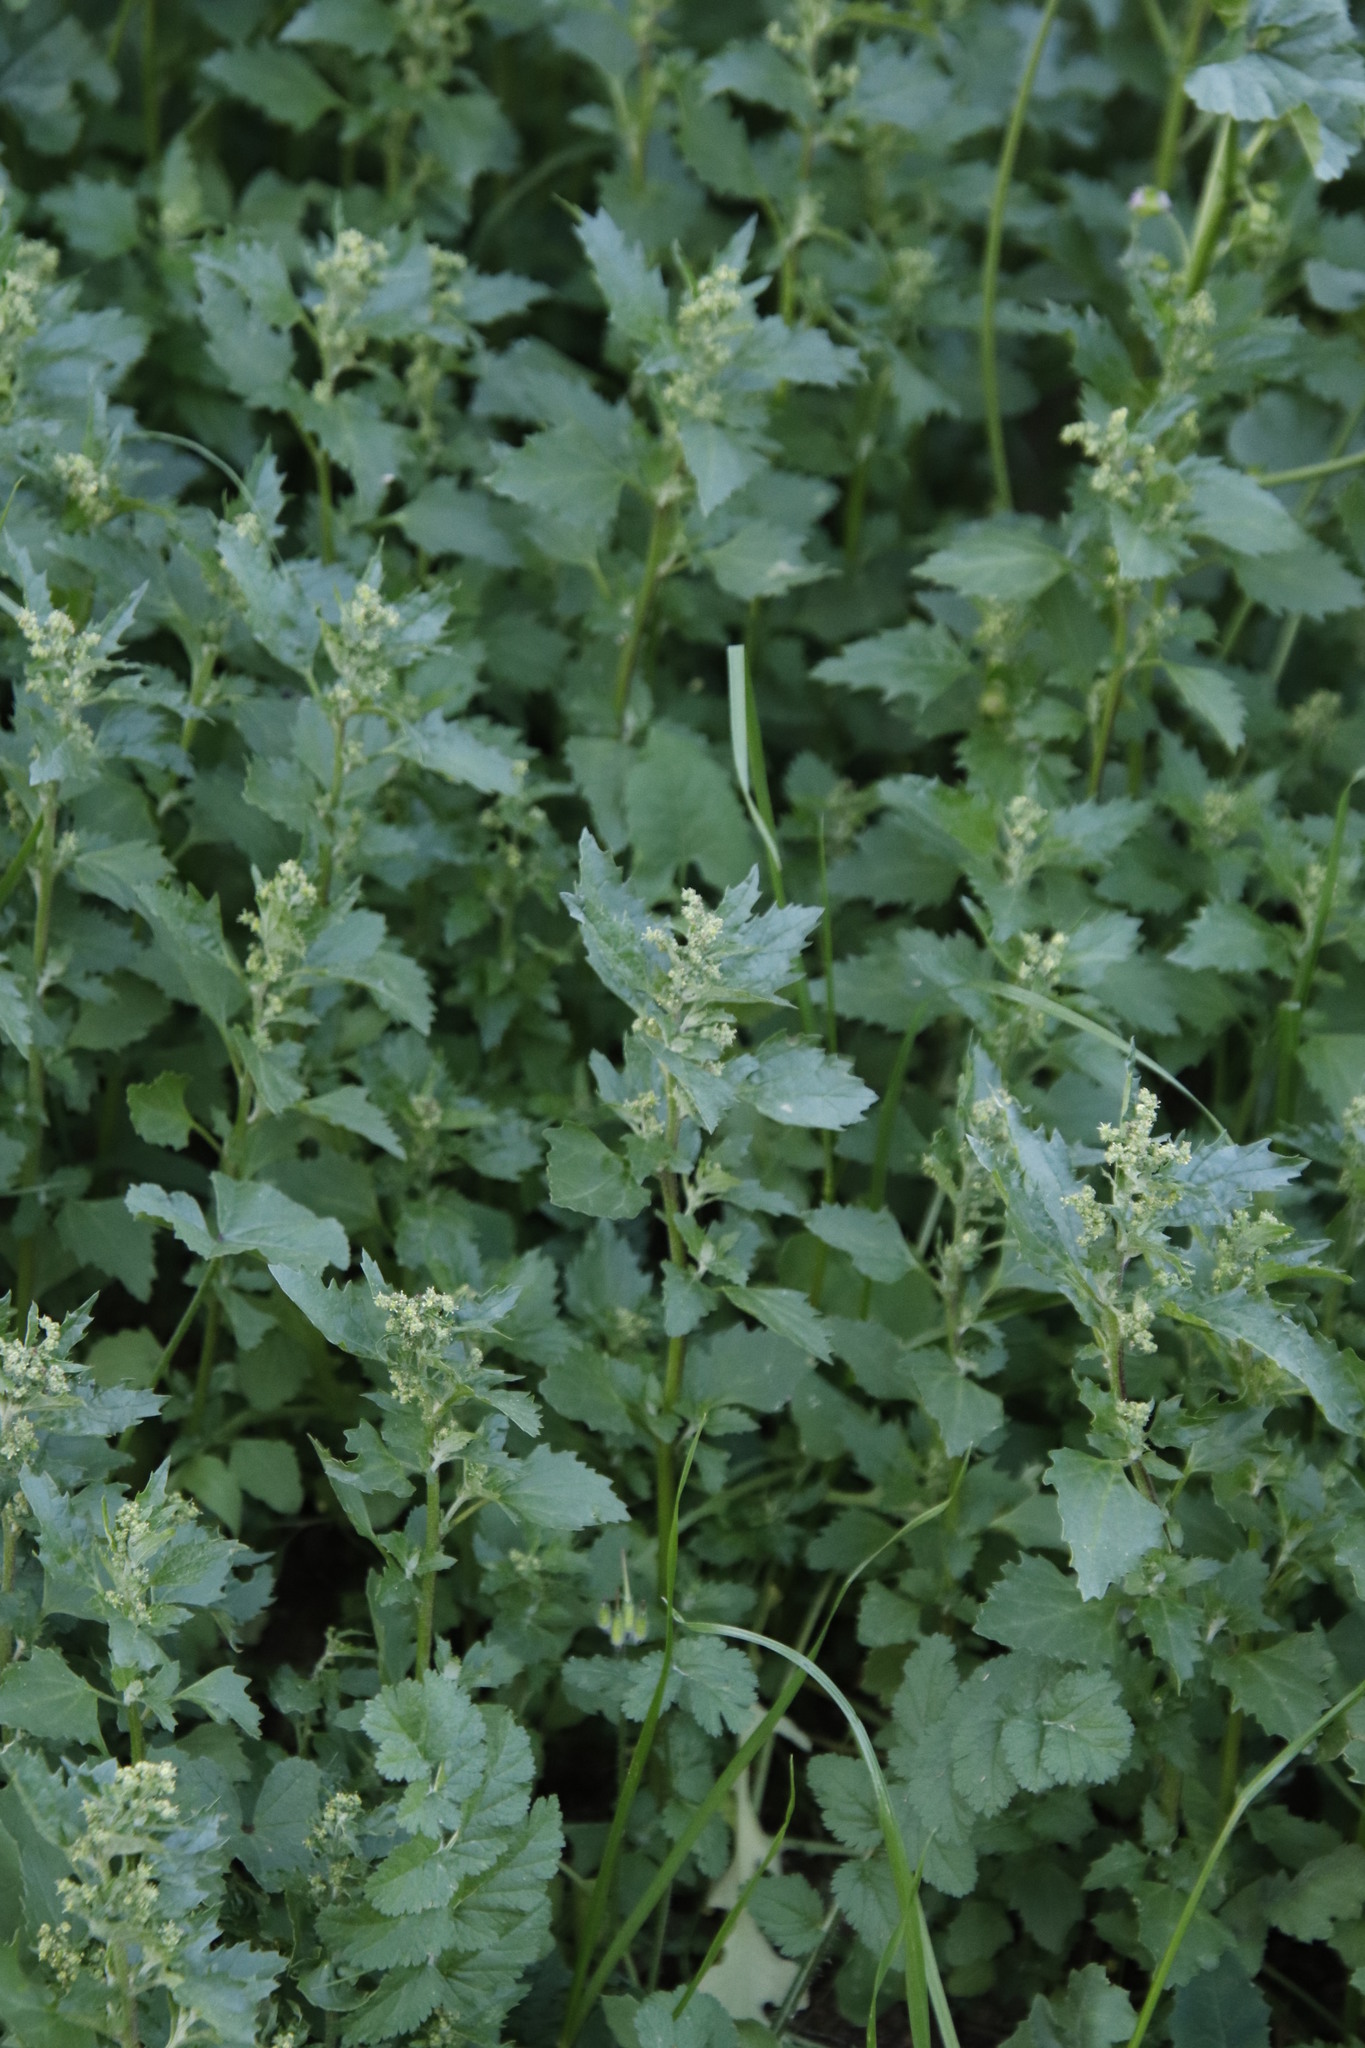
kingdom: Plantae
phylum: Tracheophyta
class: Magnoliopsida
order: Caryophyllales
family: Amaranthaceae
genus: Chenopodiastrum
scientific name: Chenopodiastrum murale
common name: Sowbane
